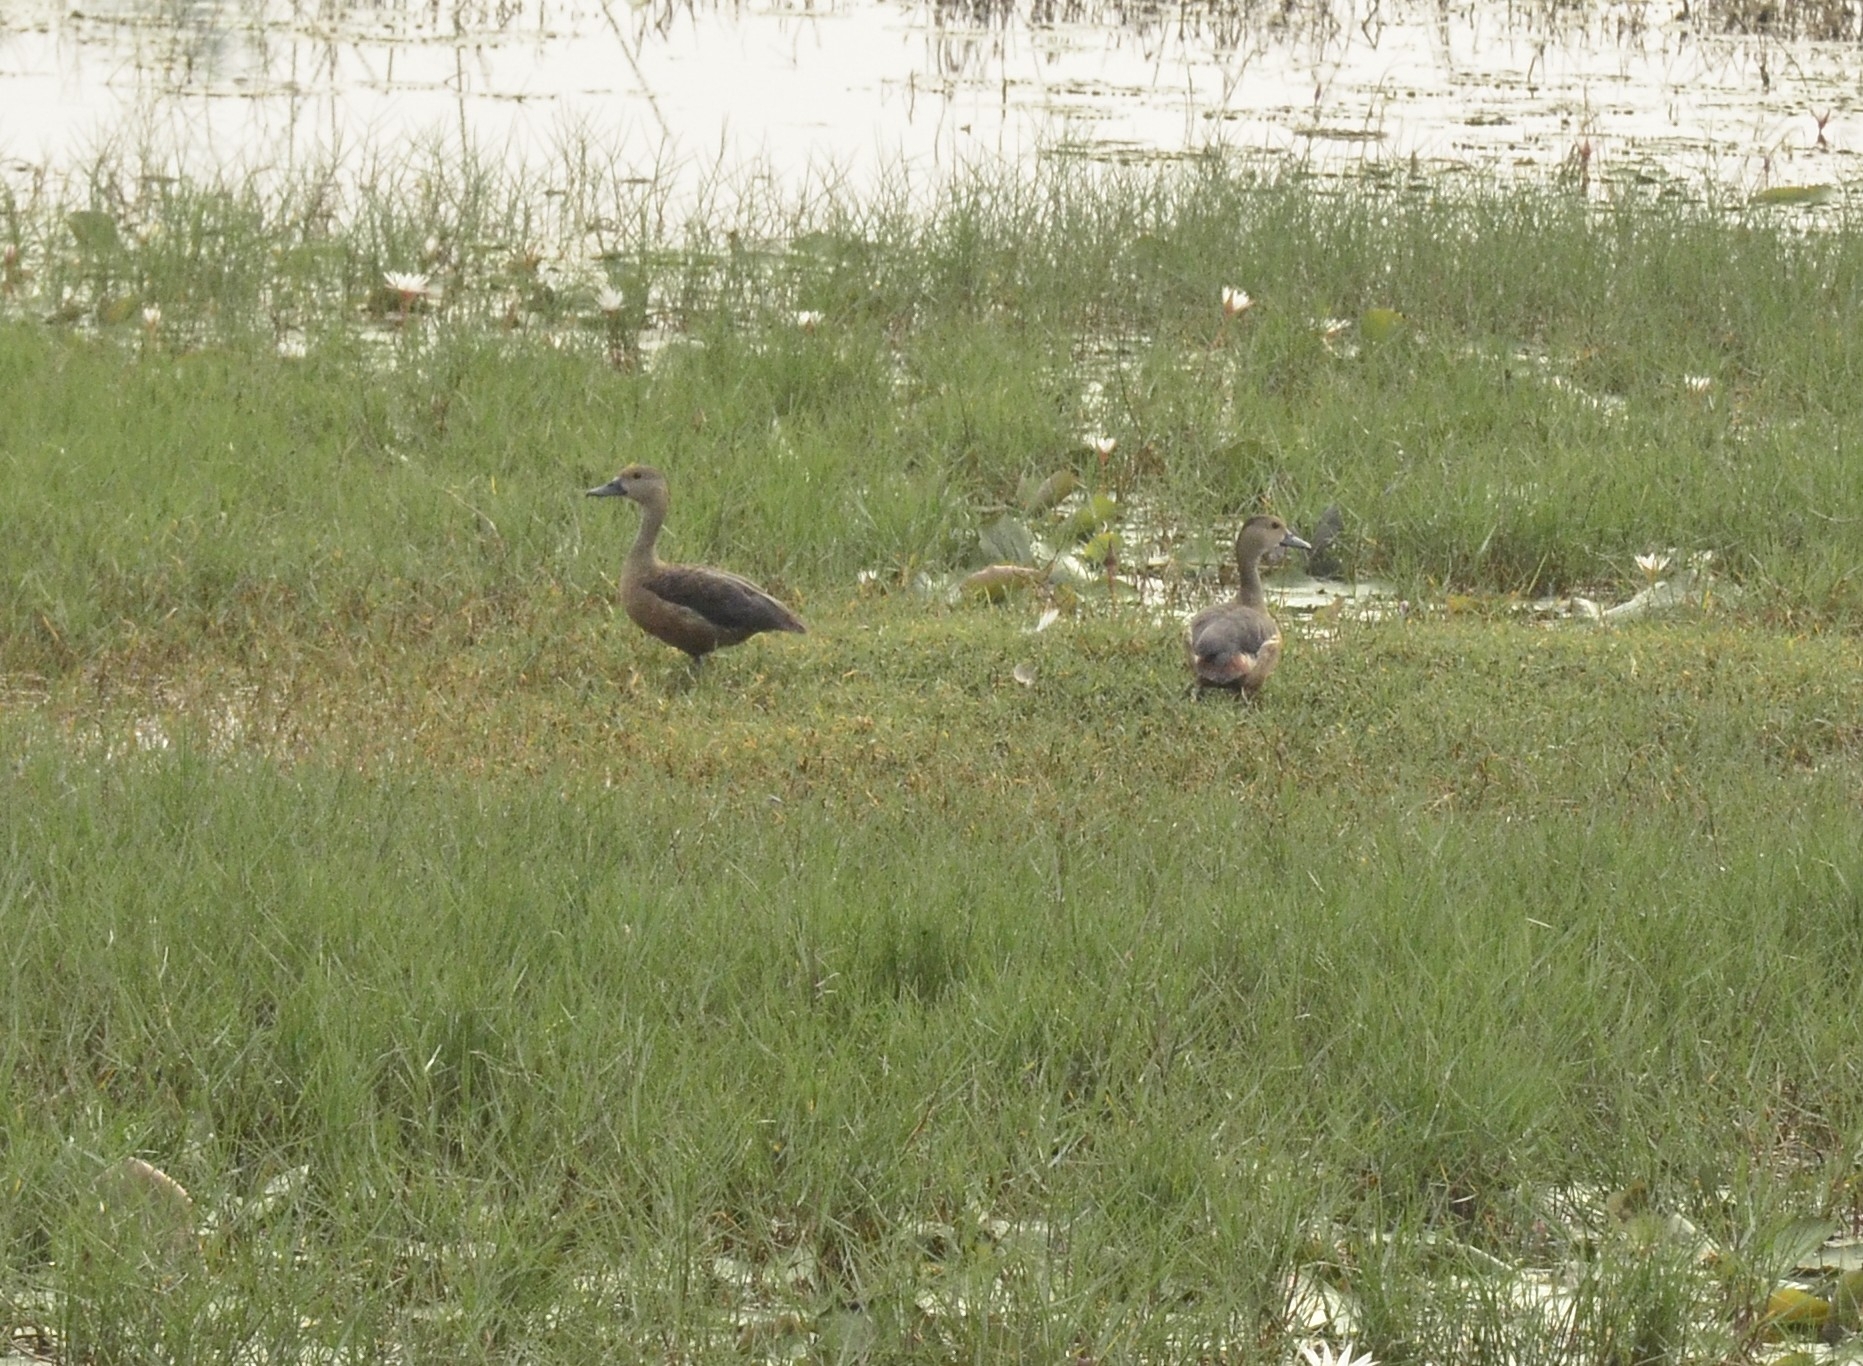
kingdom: Animalia
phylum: Chordata
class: Aves
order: Anseriformes
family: Anatidae
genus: Dendrocygna
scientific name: Dendrocygna javanica
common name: Lesser whistling-duck
